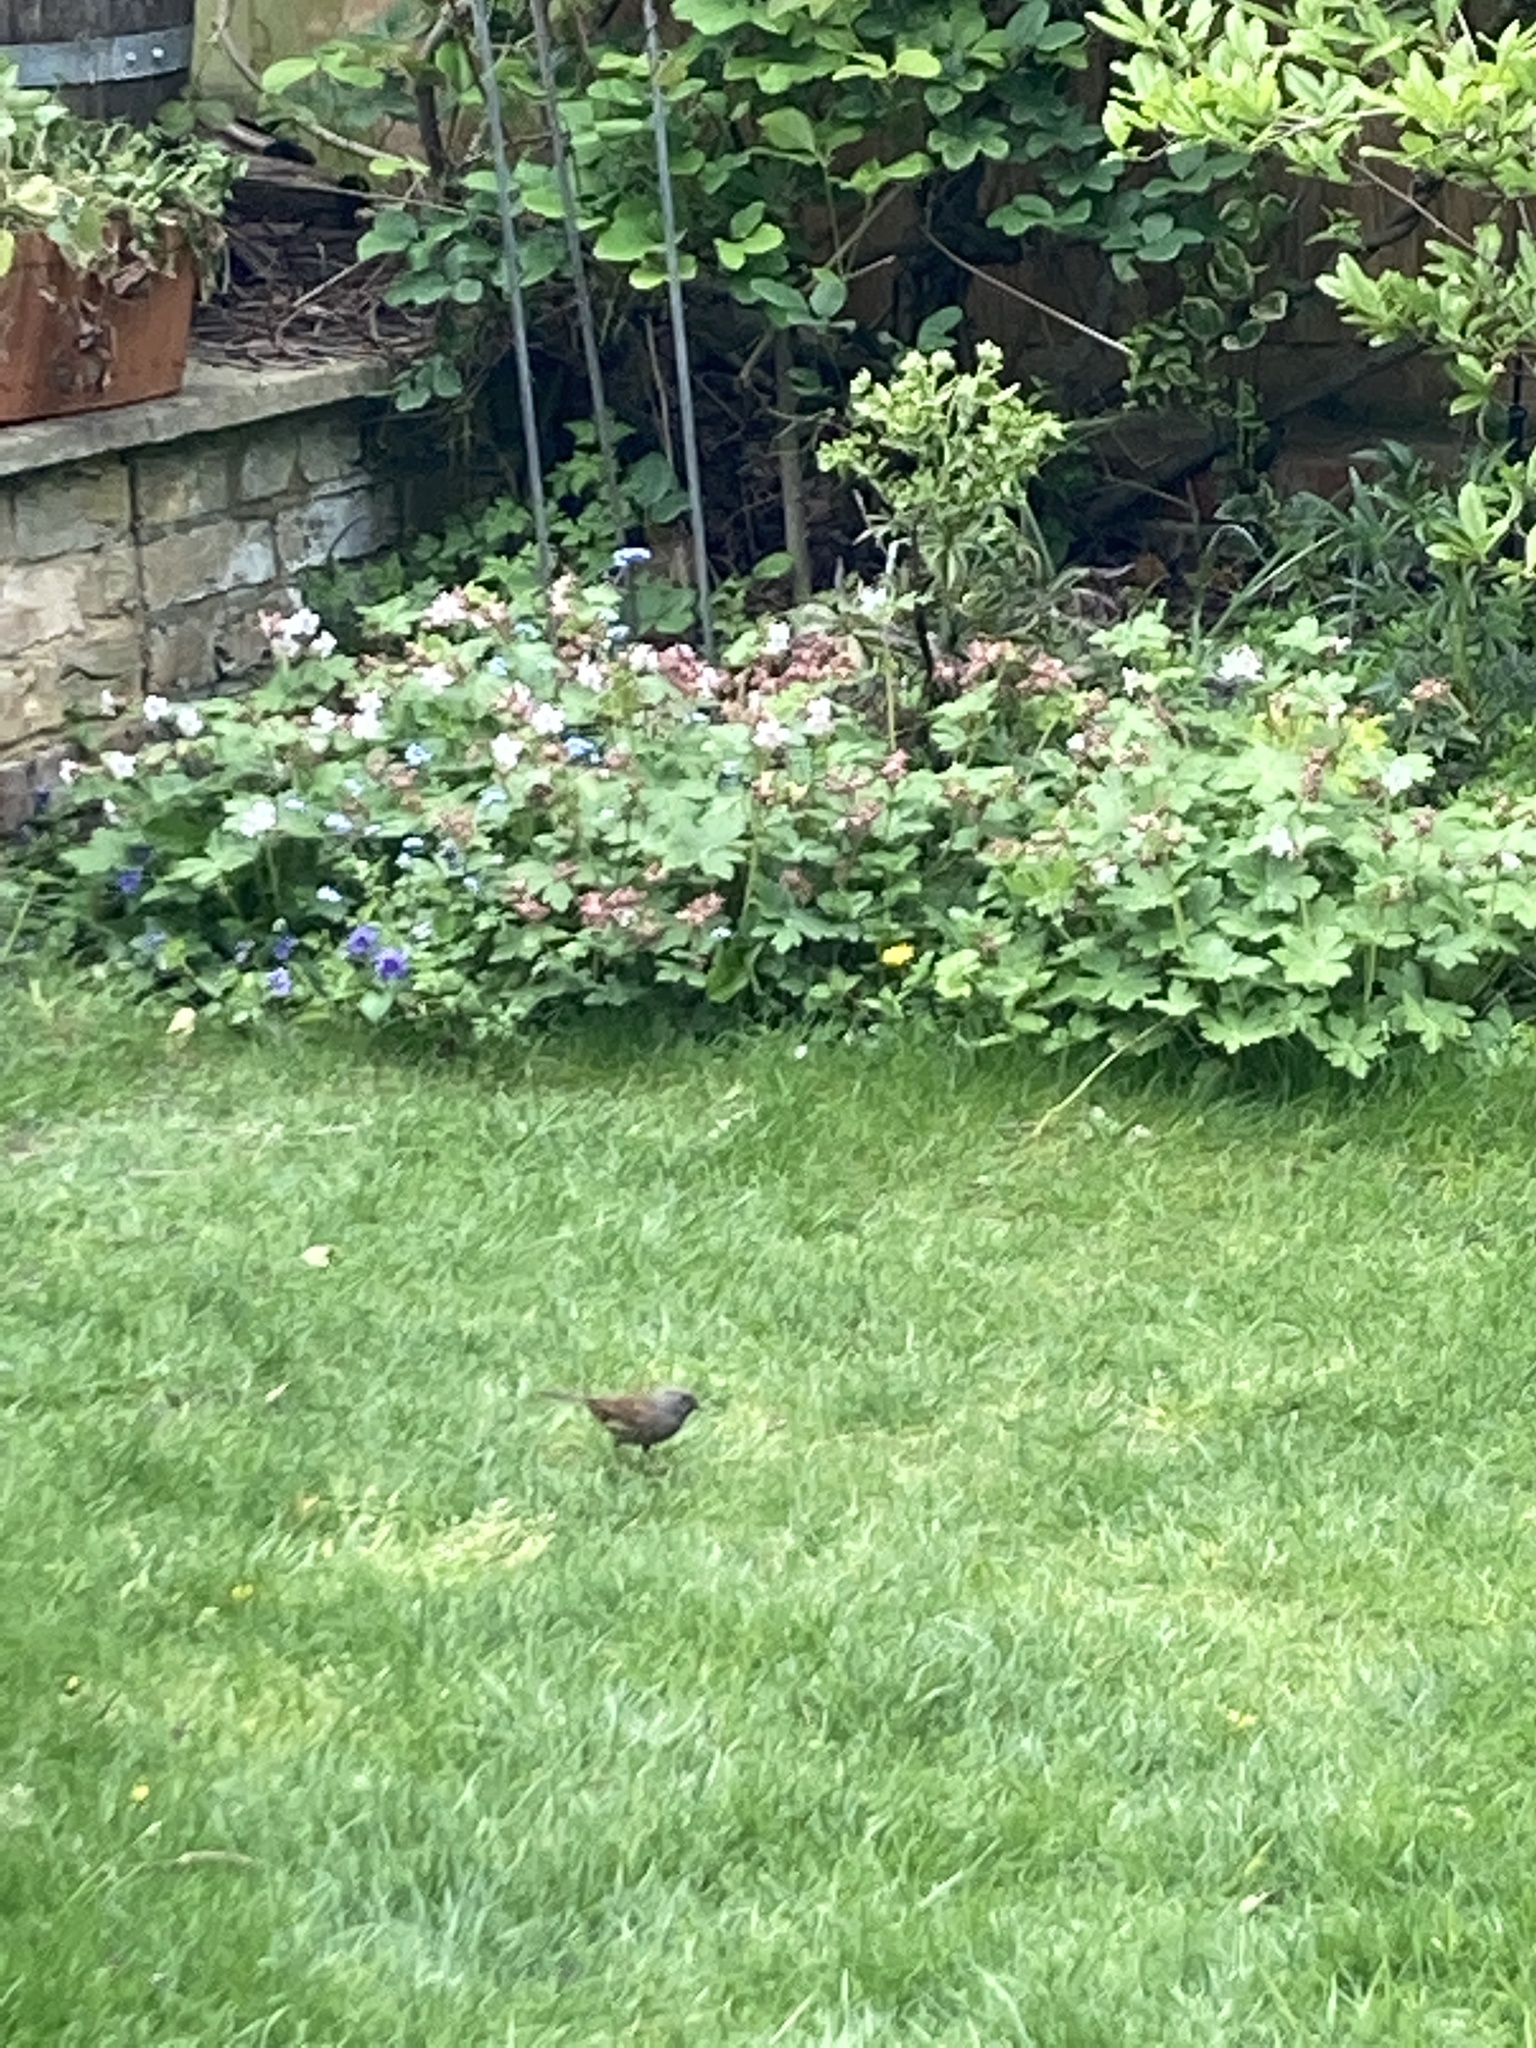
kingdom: Animalia
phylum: Chordata
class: Aves
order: Passeriformes
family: Prunellidae
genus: Prunella
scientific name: Prunella modularis
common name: Dunnock
